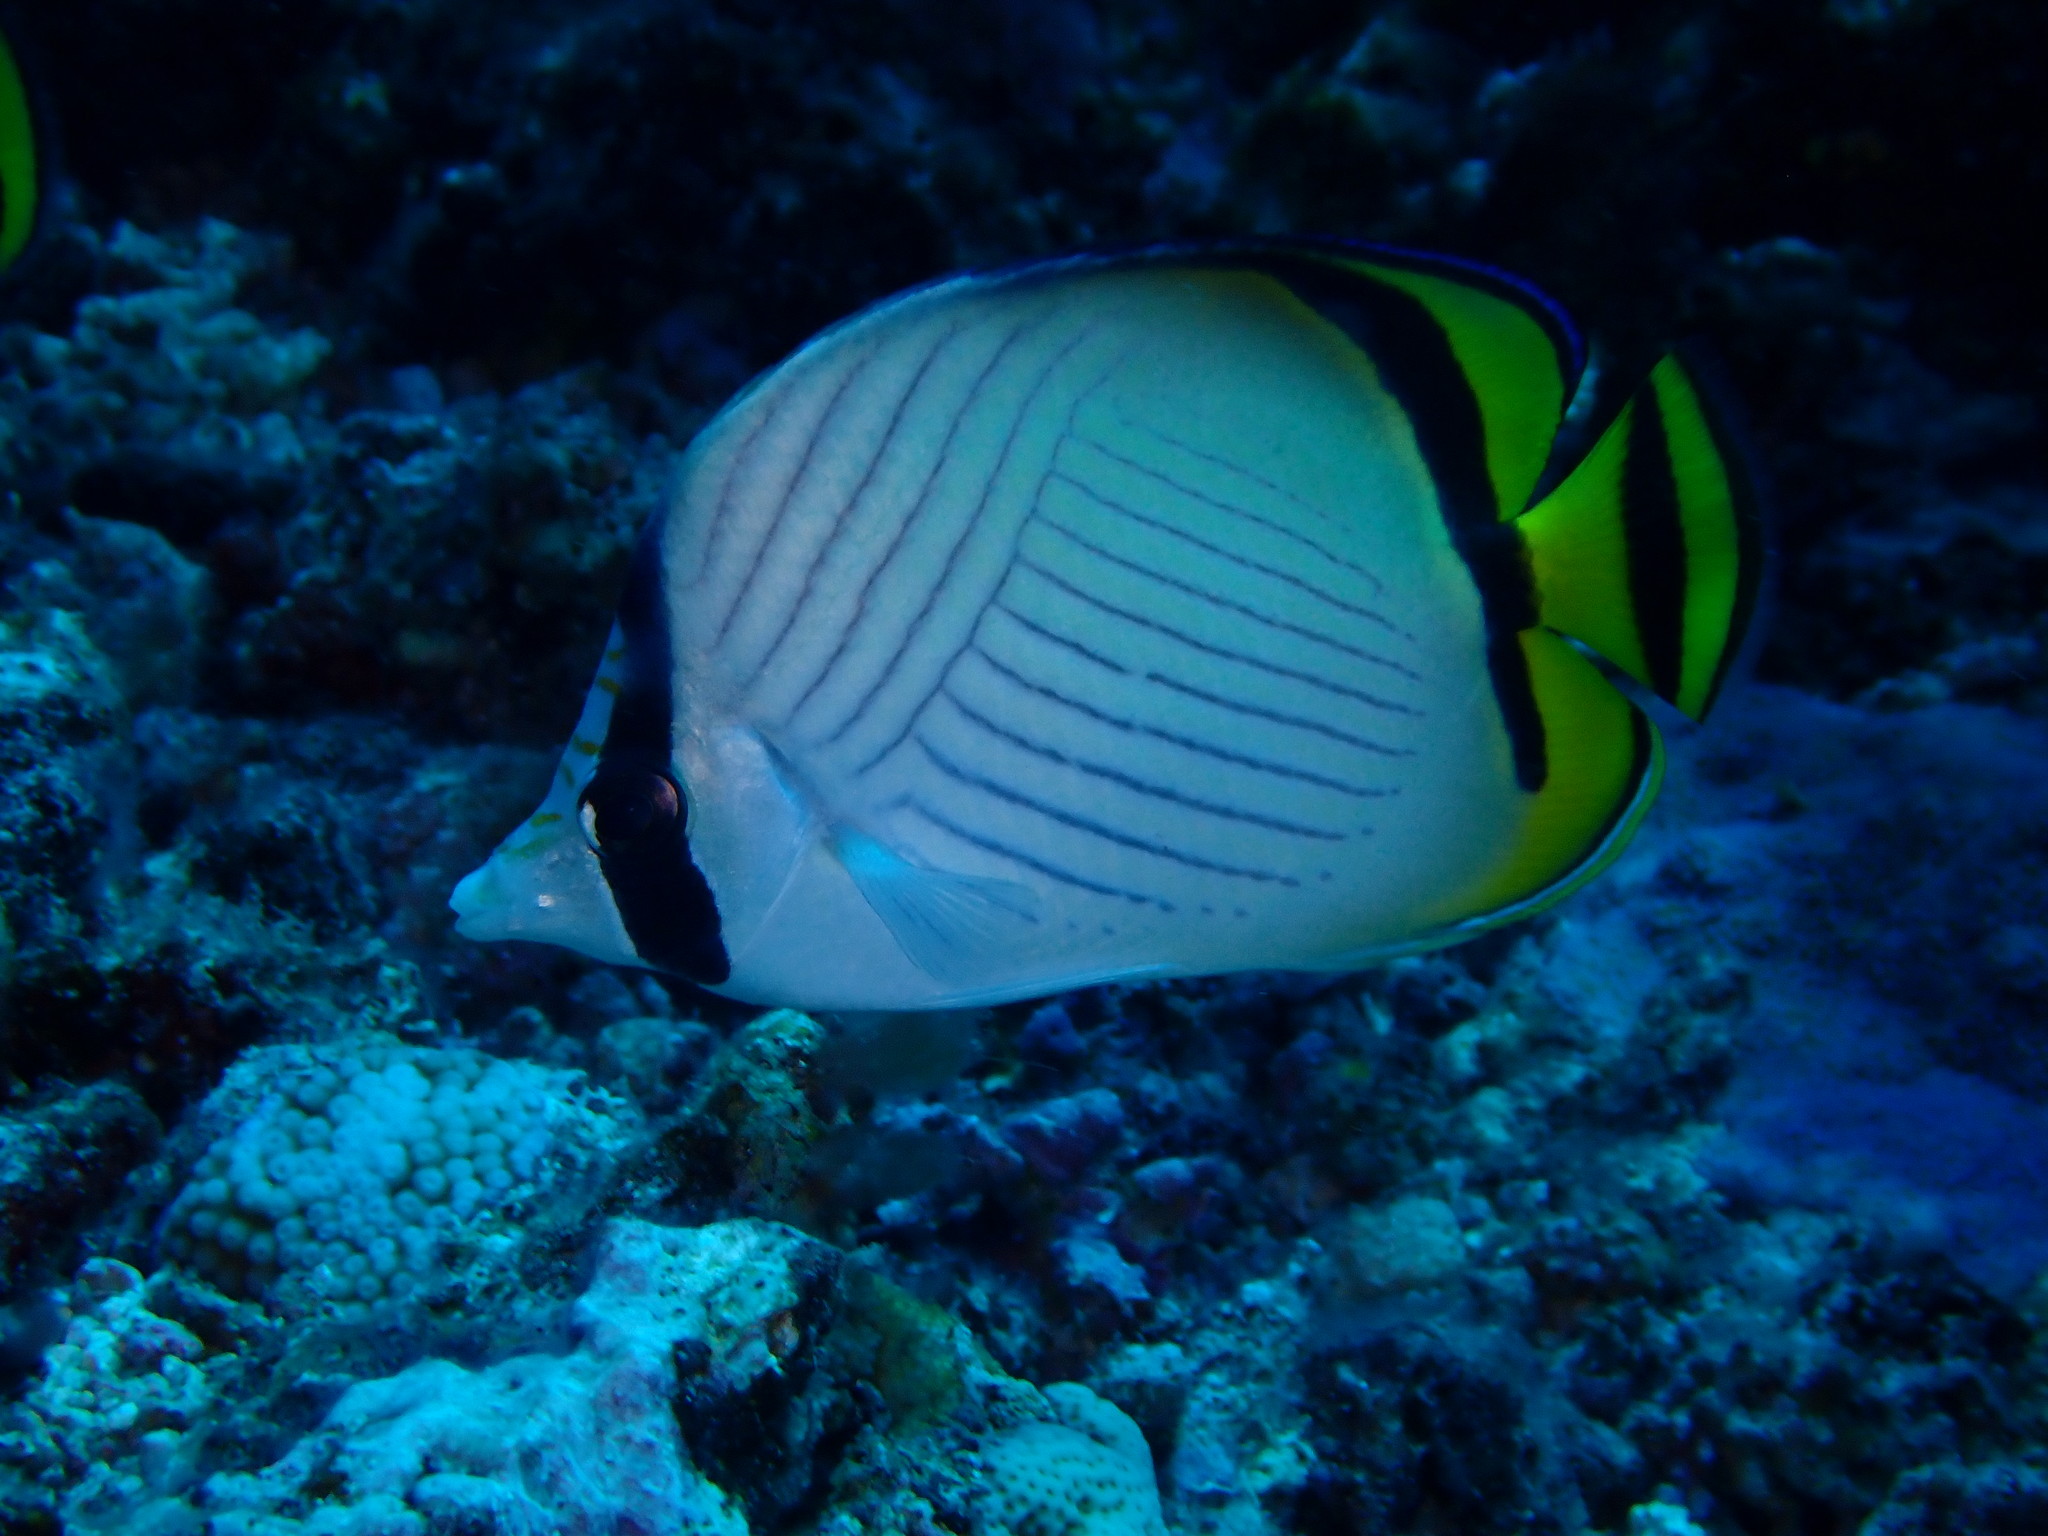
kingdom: Animalia
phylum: Chordata
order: Perciformes
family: Chaetodontidae
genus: Chaetodon
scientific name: Chaetodon vagabundus
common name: Vagabond butterflyfish
